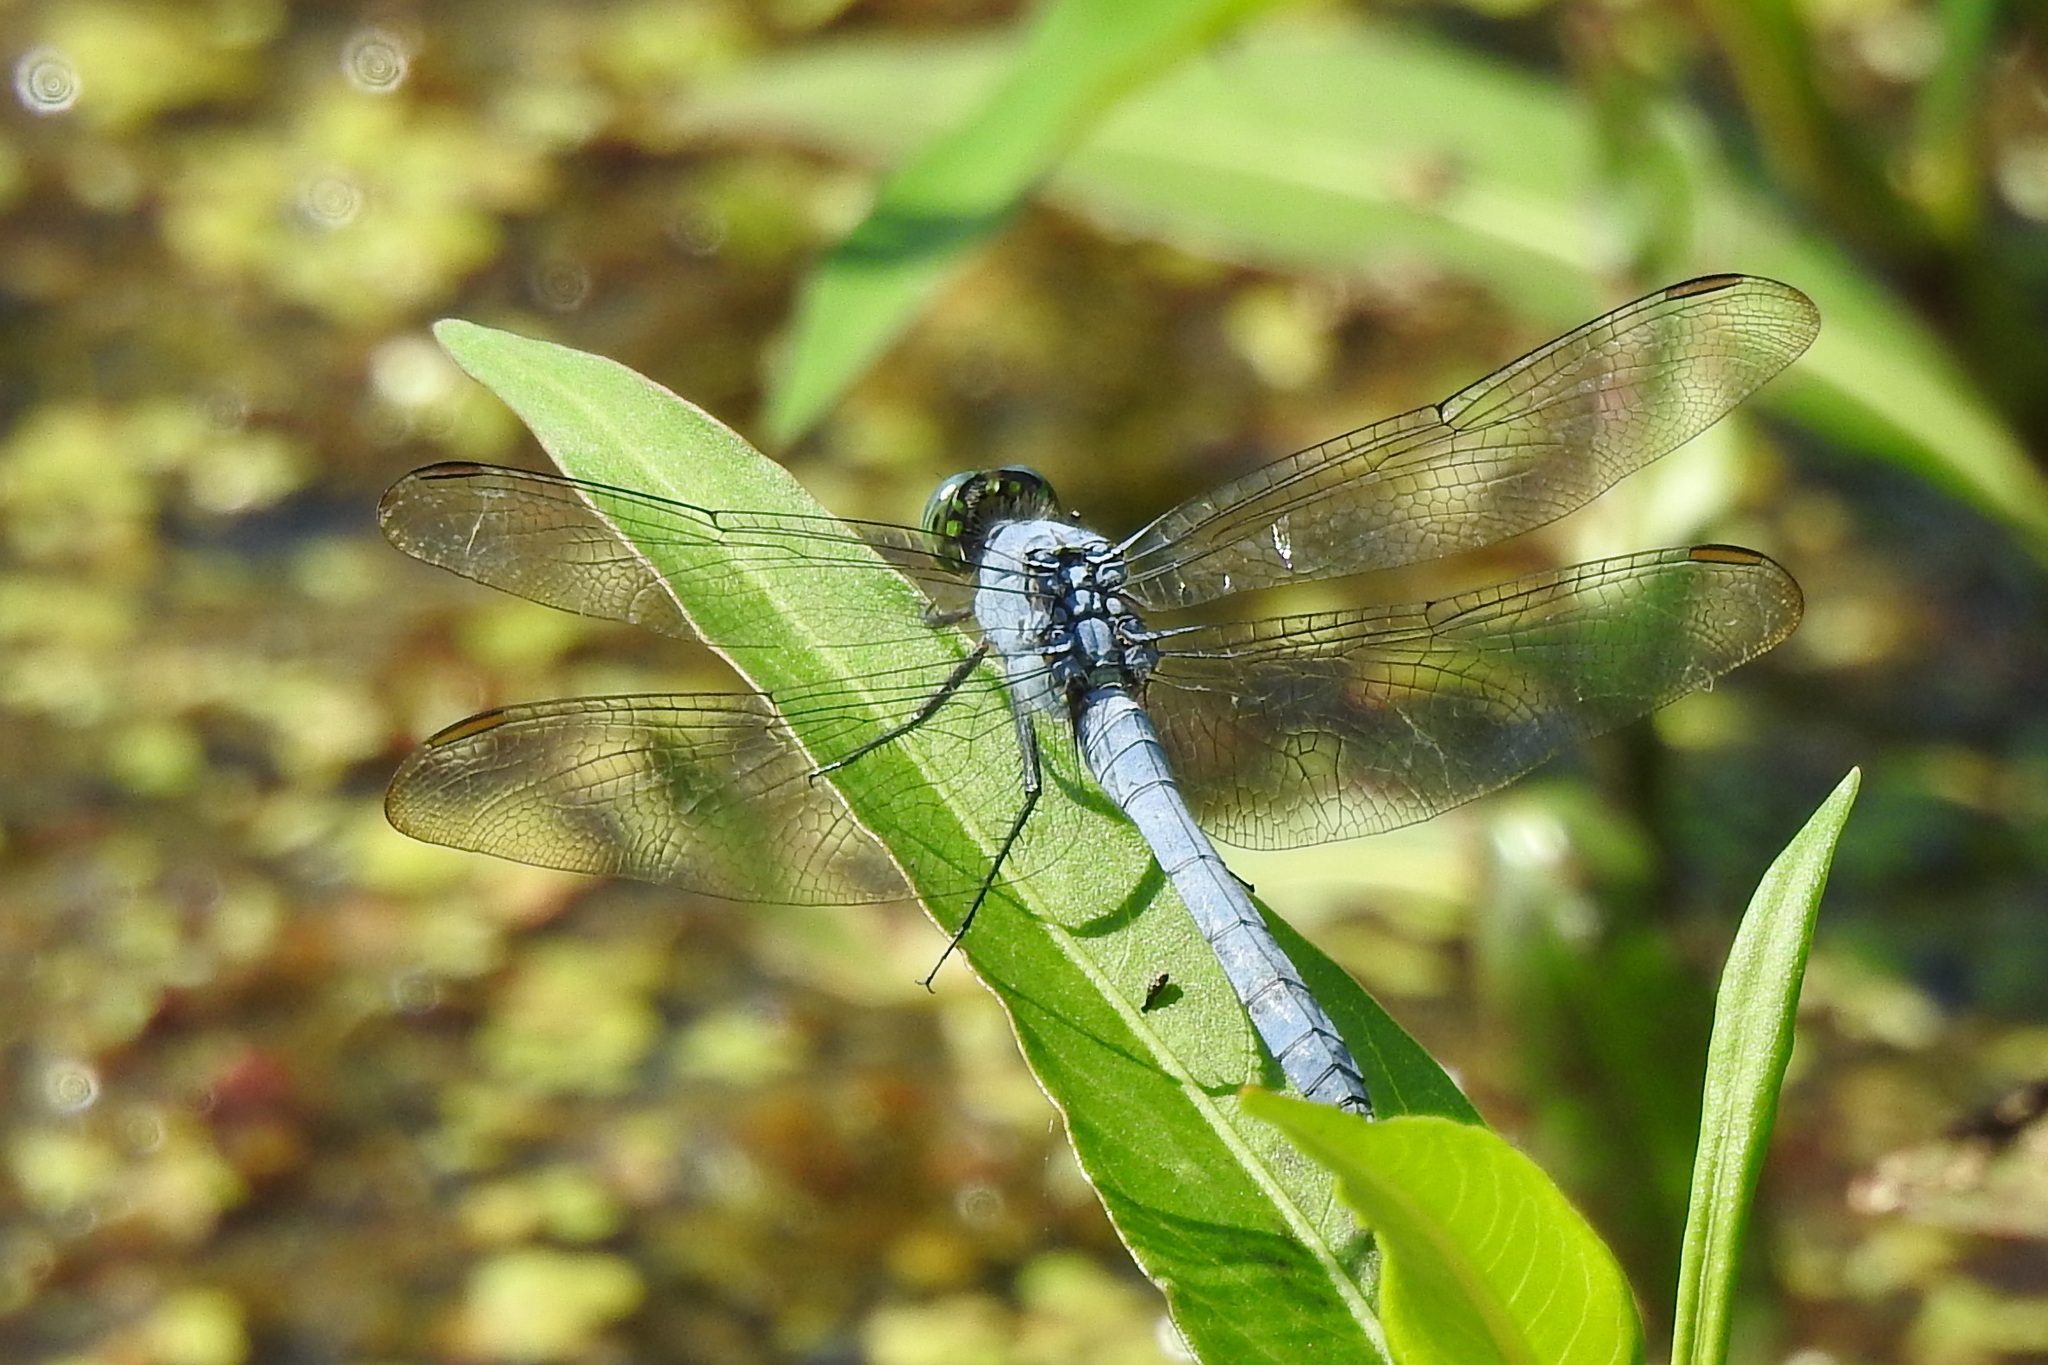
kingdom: Animalia
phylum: Arthropoda
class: Insecta
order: Odonata
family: Libellulidae
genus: Erythemis
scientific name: Erythemis simplicicollis
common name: Eastern pondhawk
